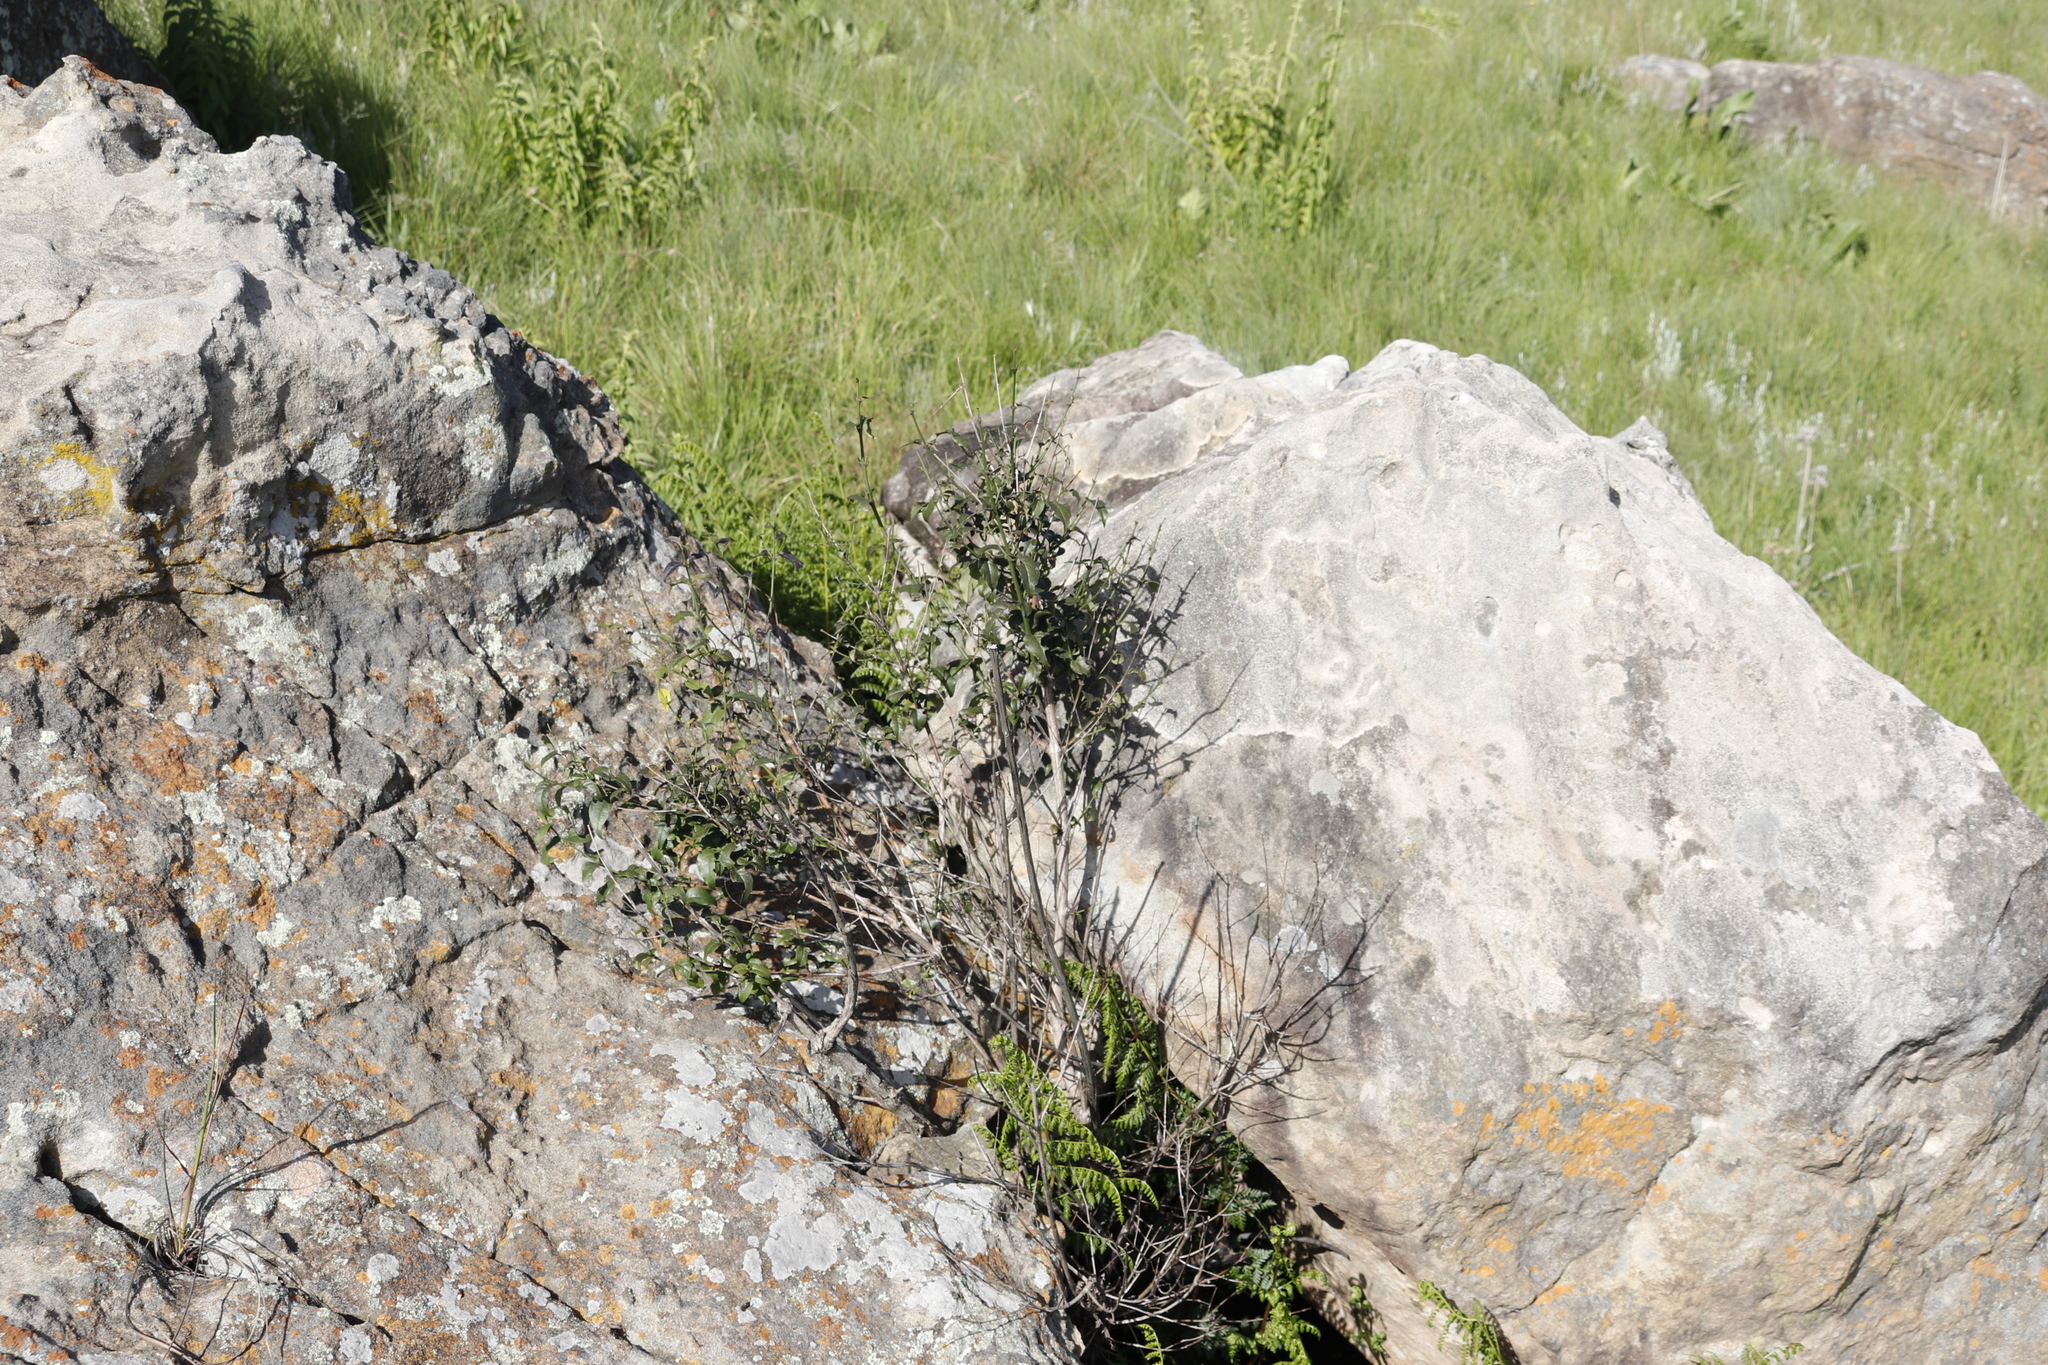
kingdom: Plantae
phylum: Tracheophyta
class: Magnoliopsida
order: Lamiales
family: Stilbaceae
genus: Halleria
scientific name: Halleria lucida
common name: Tree fuschia
